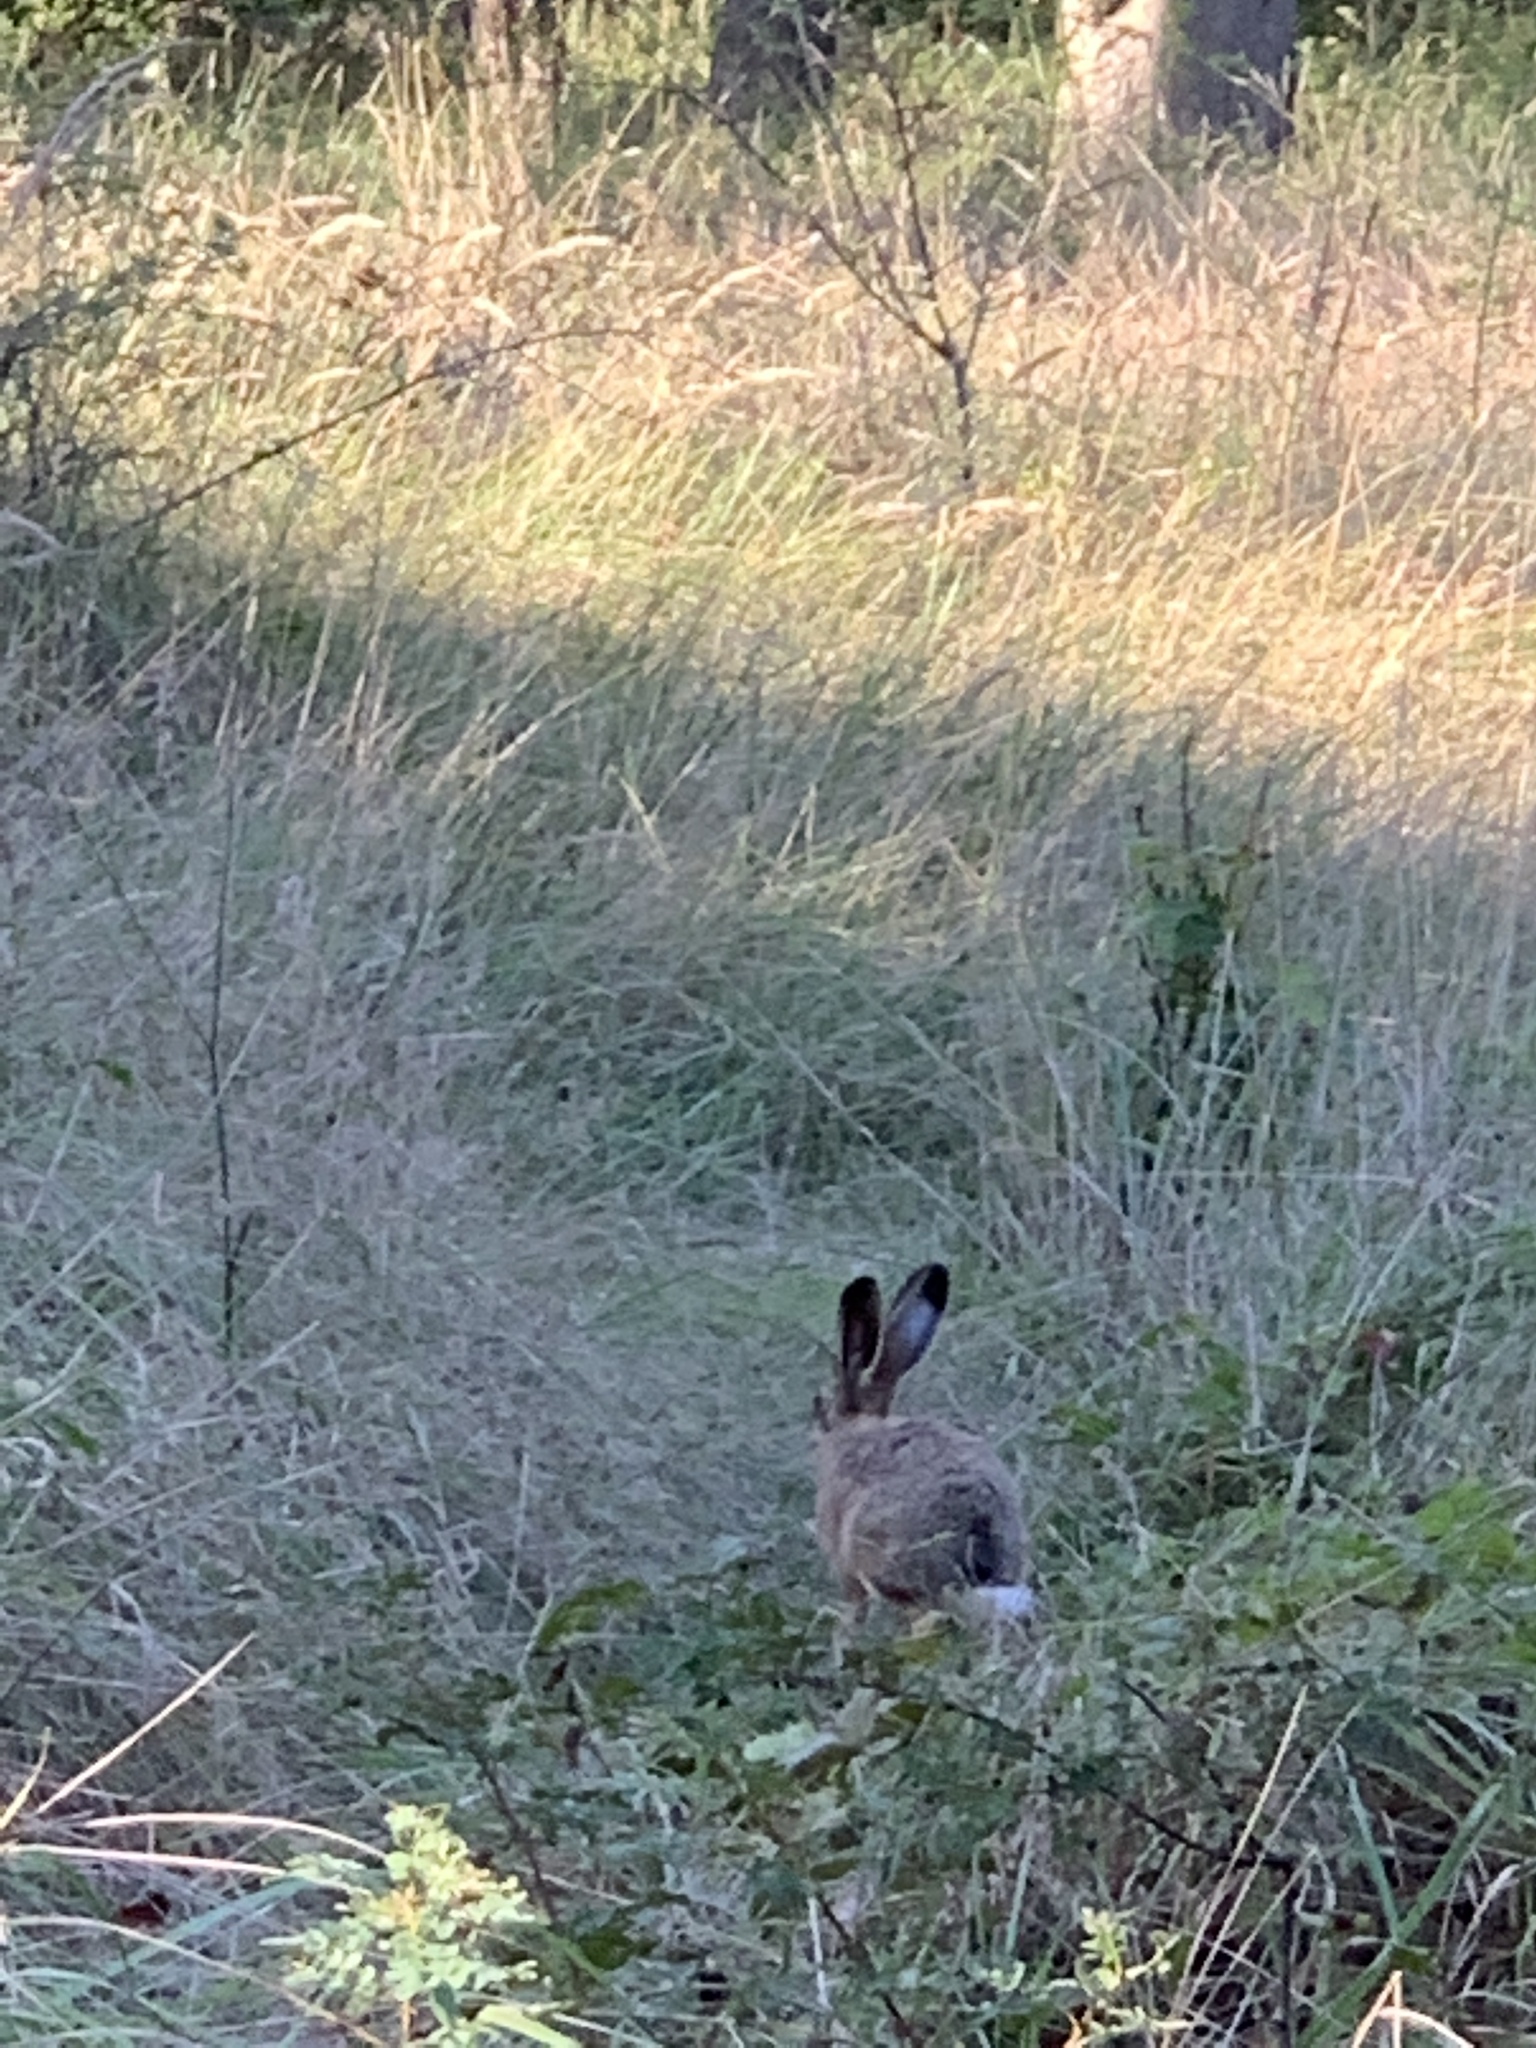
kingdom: Animalia
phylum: Chordata
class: Mammalia
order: Lagomorpha
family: Leporidae
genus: Lepus
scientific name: Lepus europaeus
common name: European hare
